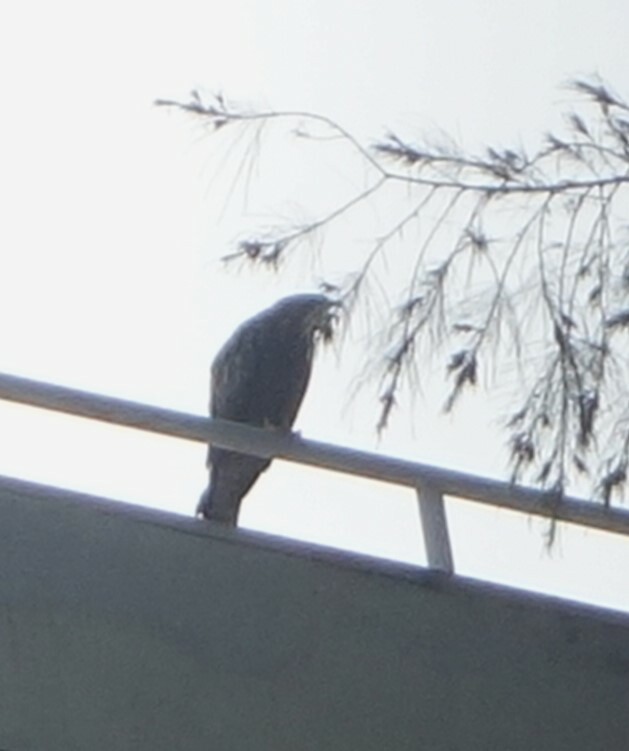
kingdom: Animalia
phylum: Chordata
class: Aves
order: Accipitriformes
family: Accipitridae
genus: Milvus
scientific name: Milvus migrans
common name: Black kite
